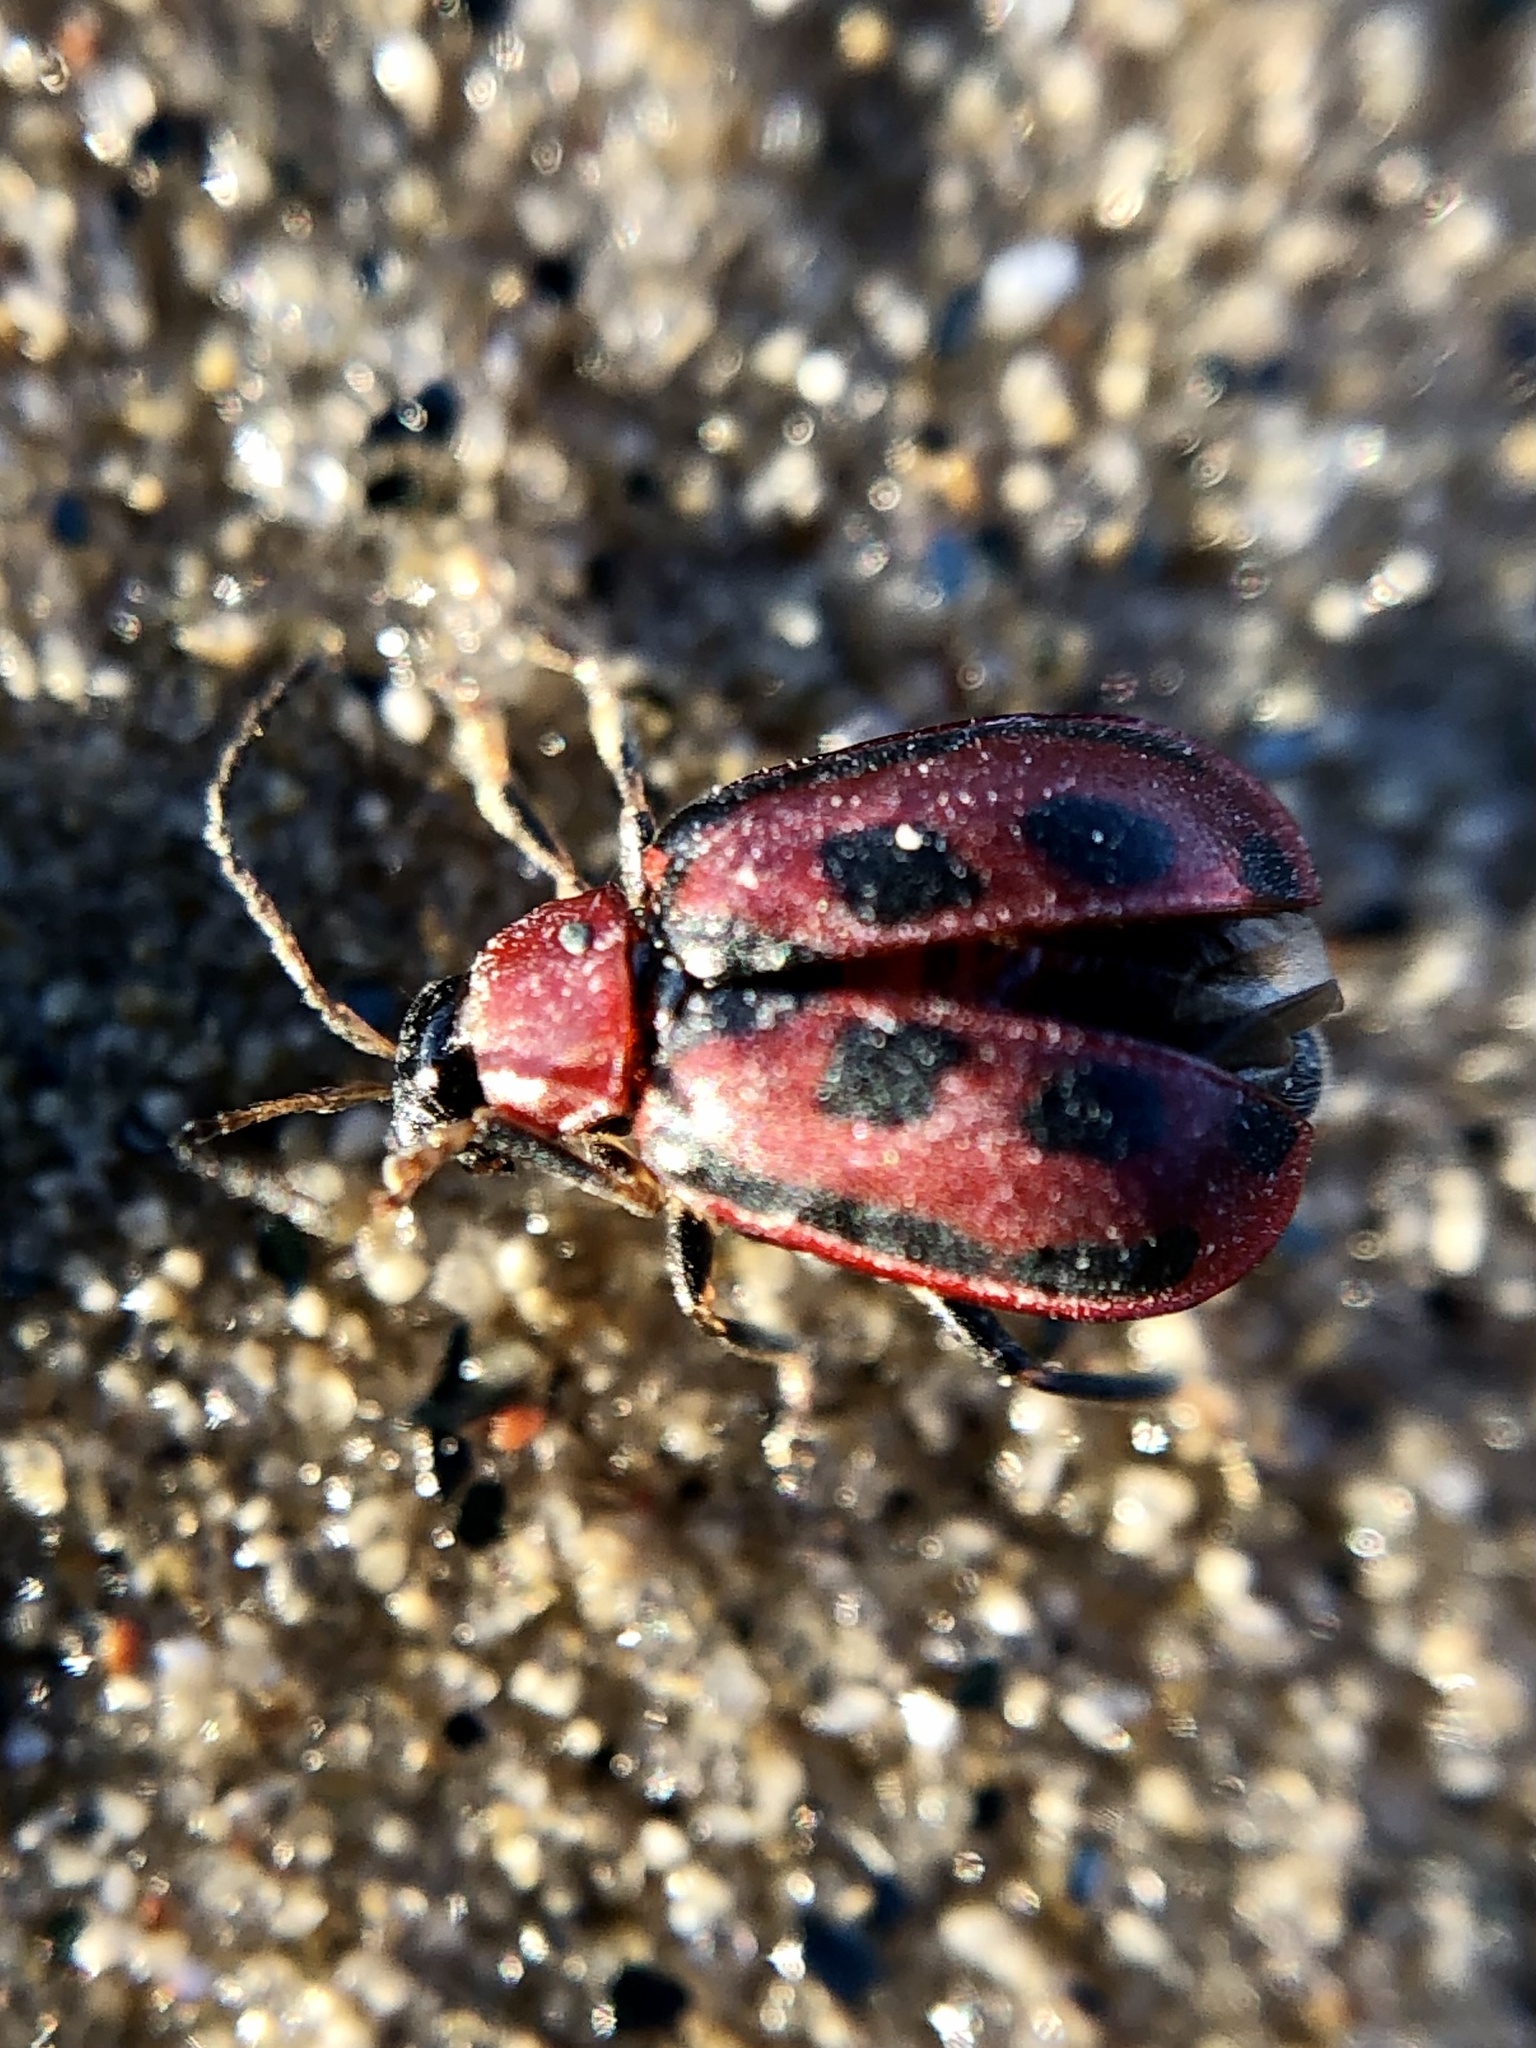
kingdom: Animalia
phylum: Arthropoda
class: Insecta
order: Coleoptera
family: Chrysomelidae
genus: Cerotoma
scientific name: Cerotoma trifurcata
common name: Bean leaf beetle
